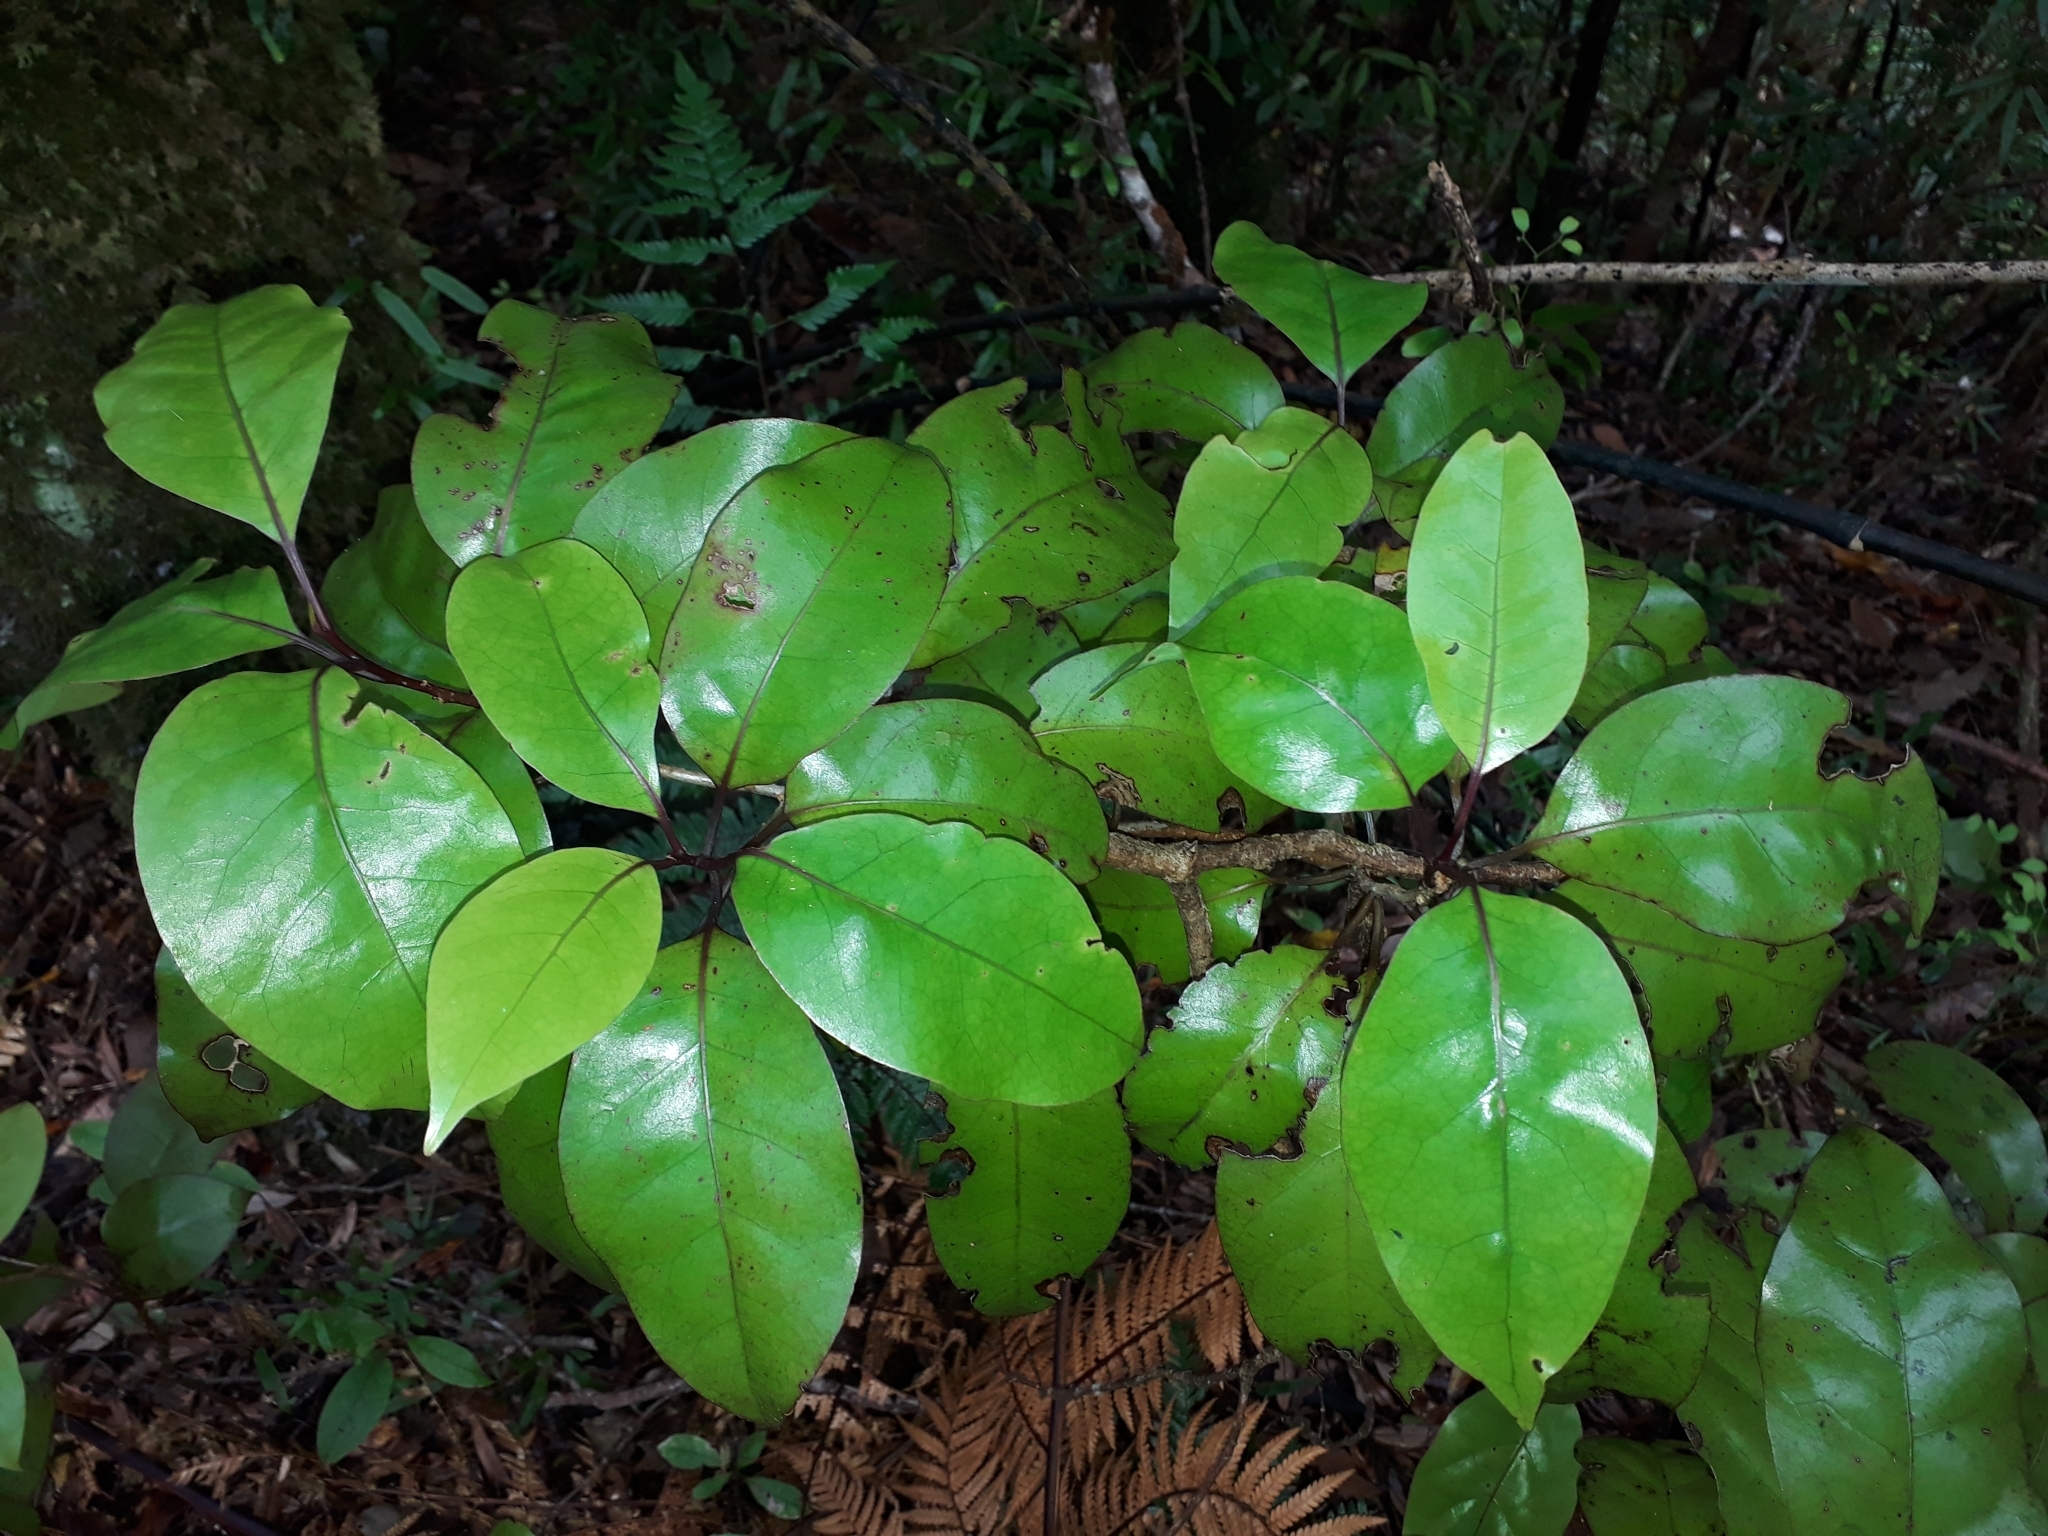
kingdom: Plantae
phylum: Tracheophyta
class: Magnoliopsida
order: Laurales
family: Lauraceae
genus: Litsea
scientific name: Litsea calicaris
